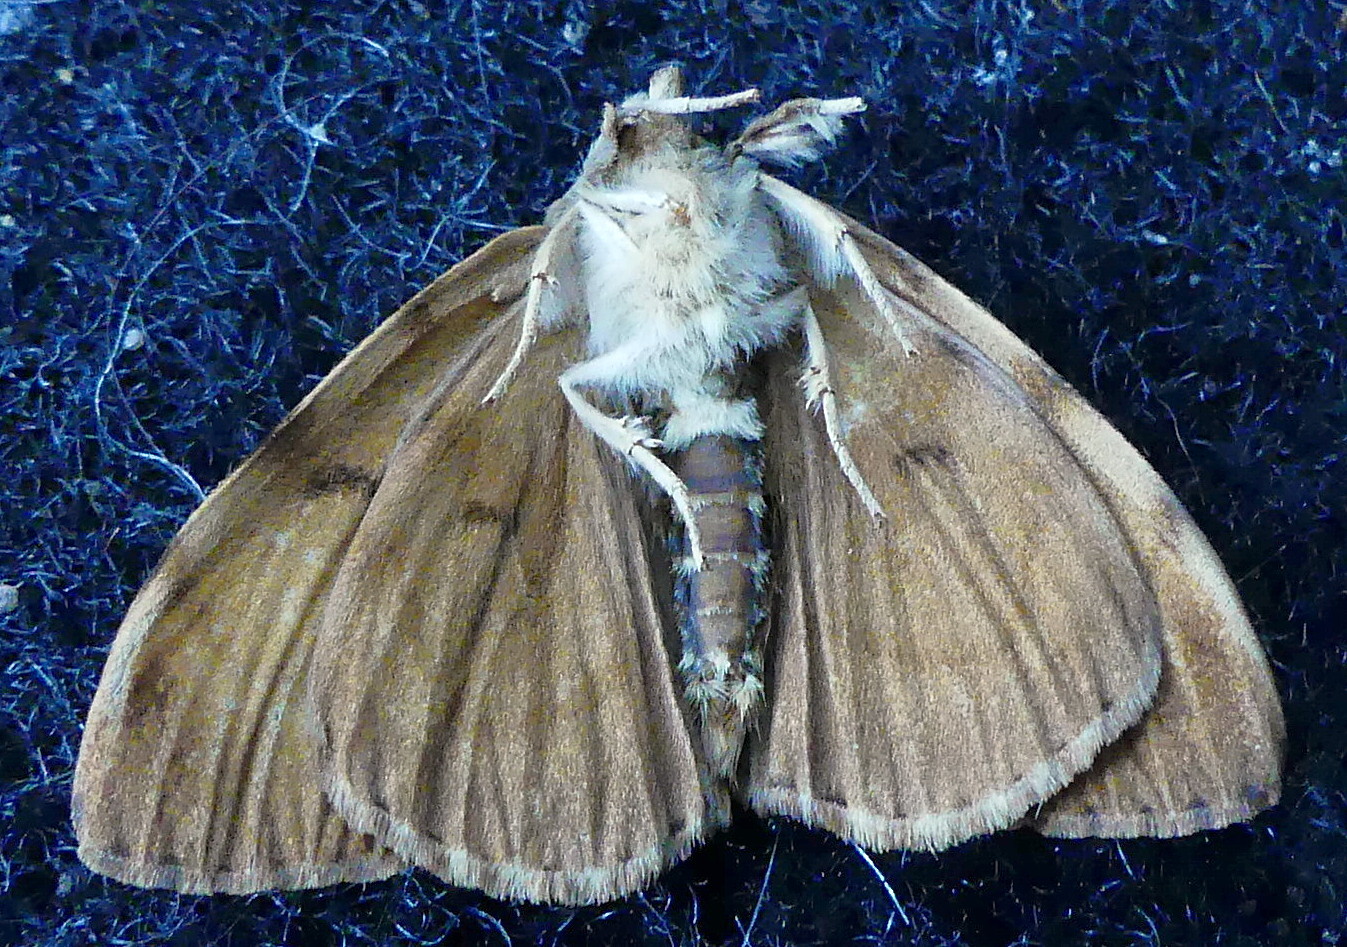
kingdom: Animalia
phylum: Arthropoda
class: Insecta
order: Lepidoptera
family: Erebidae
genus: Lymantria
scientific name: Lymantria dispar
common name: Gypsy moth
